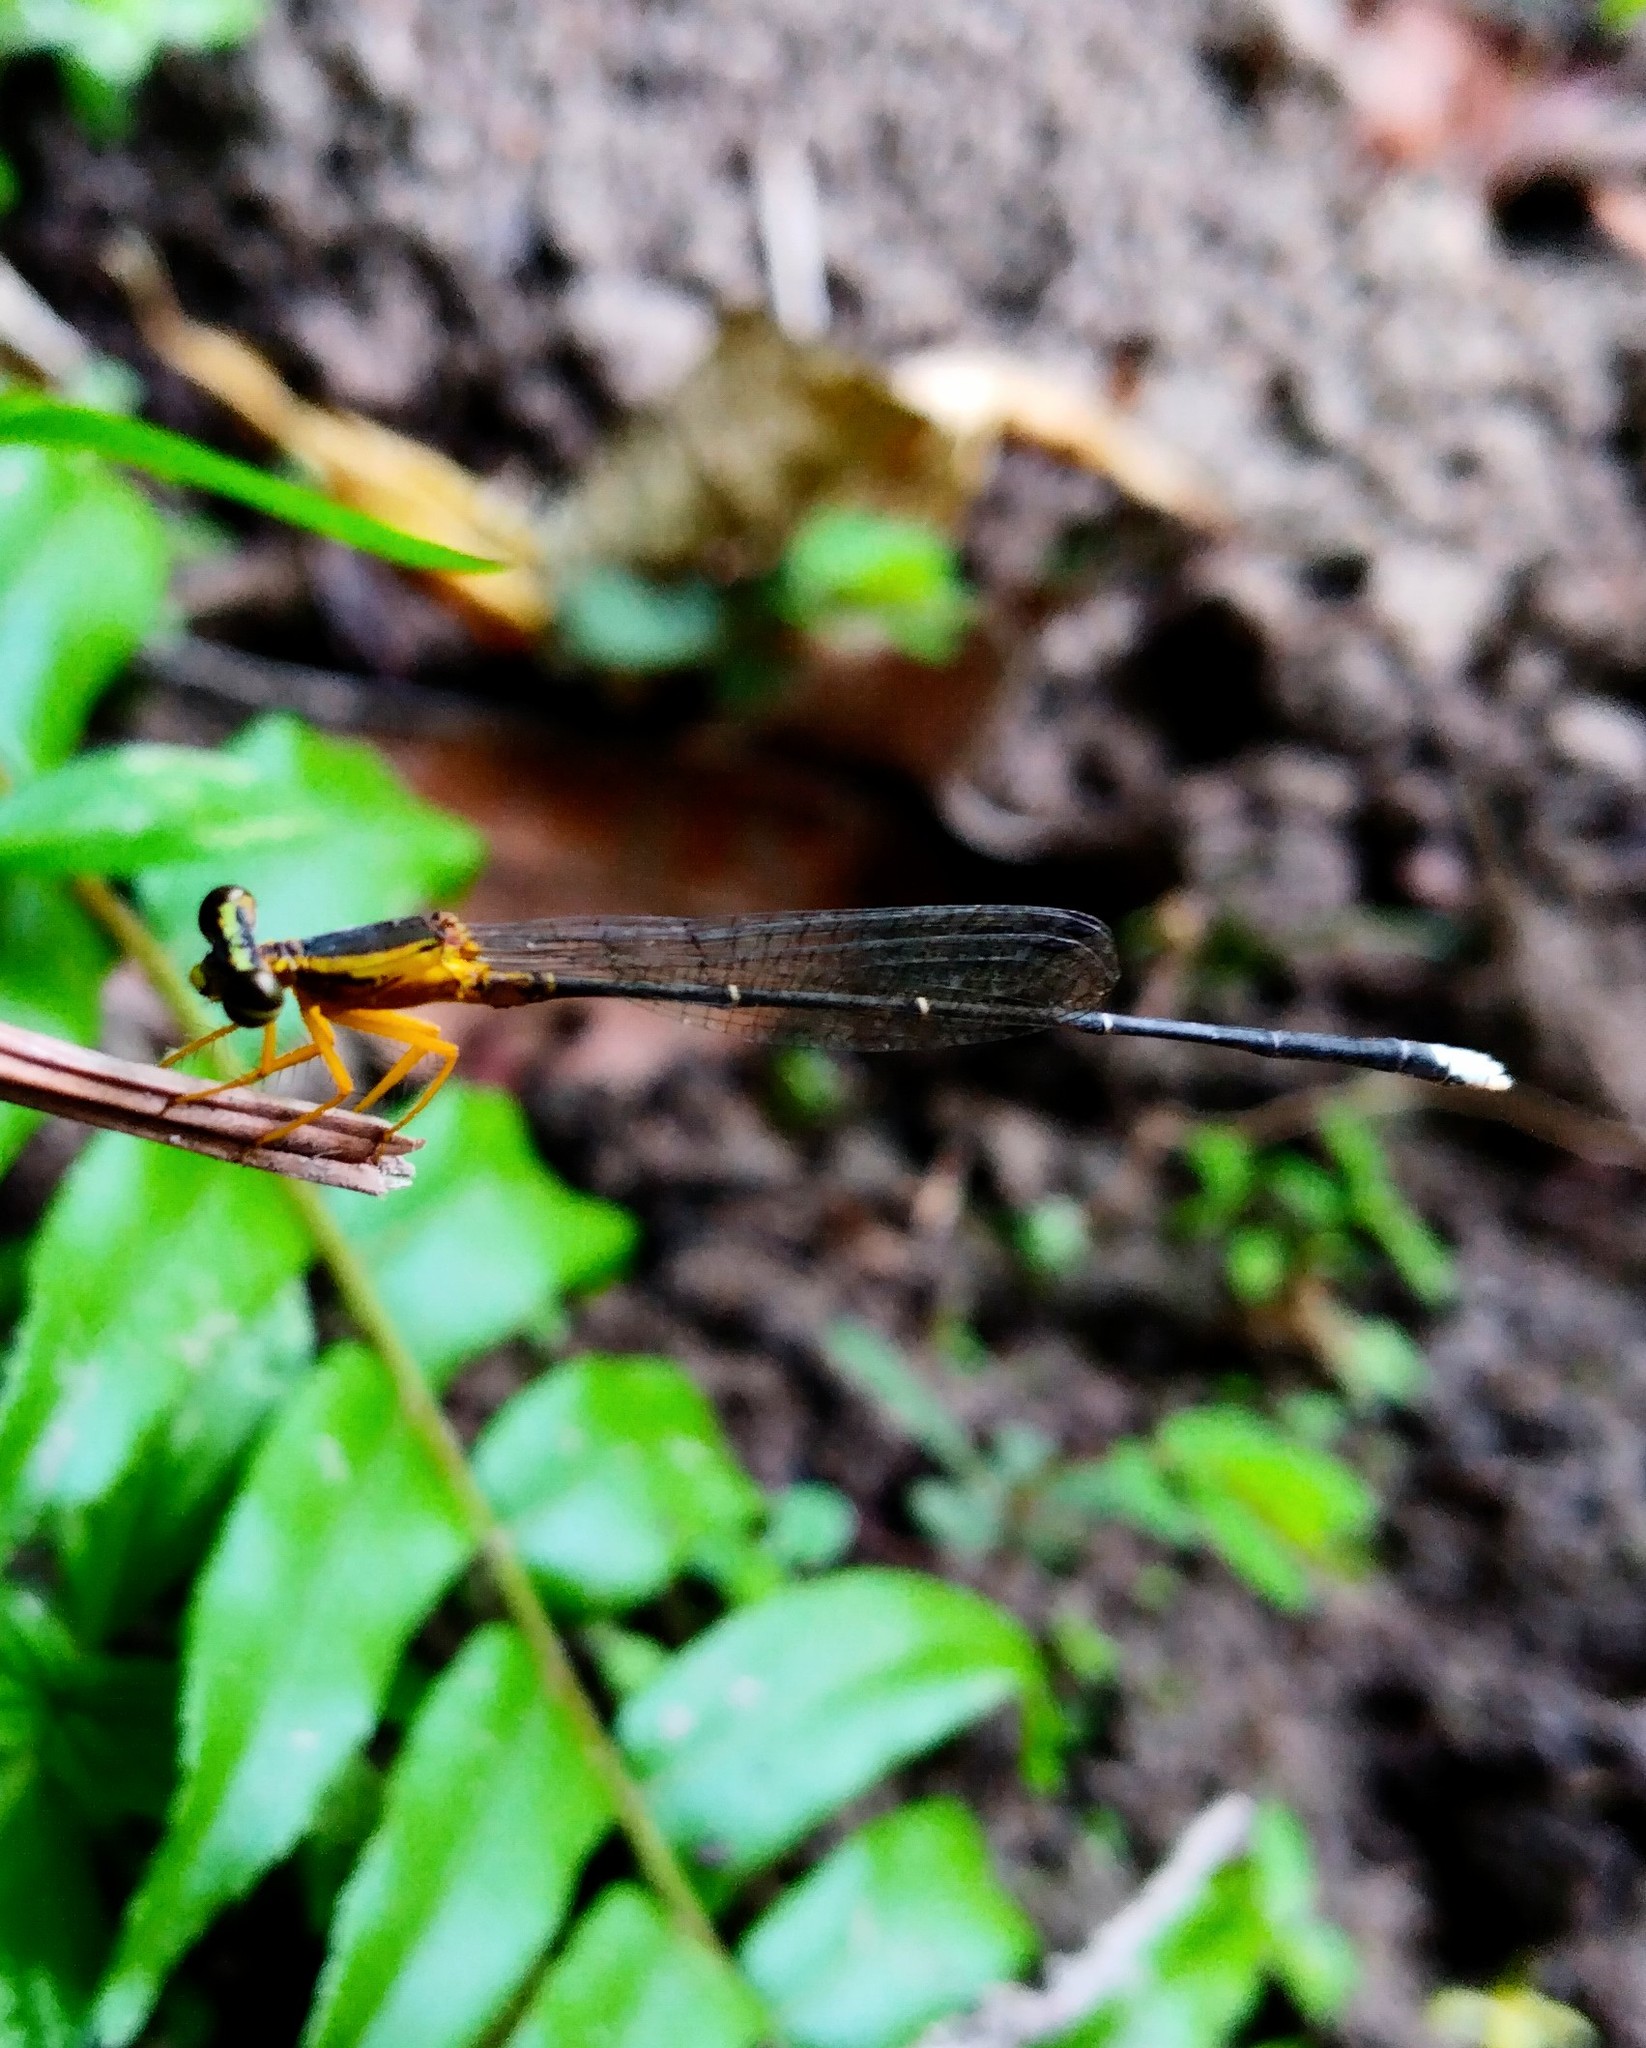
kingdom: Animalia
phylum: Arthropoda
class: Insecta
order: Odonata
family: Platycnemididae
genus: Copera
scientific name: Copera marginipes
